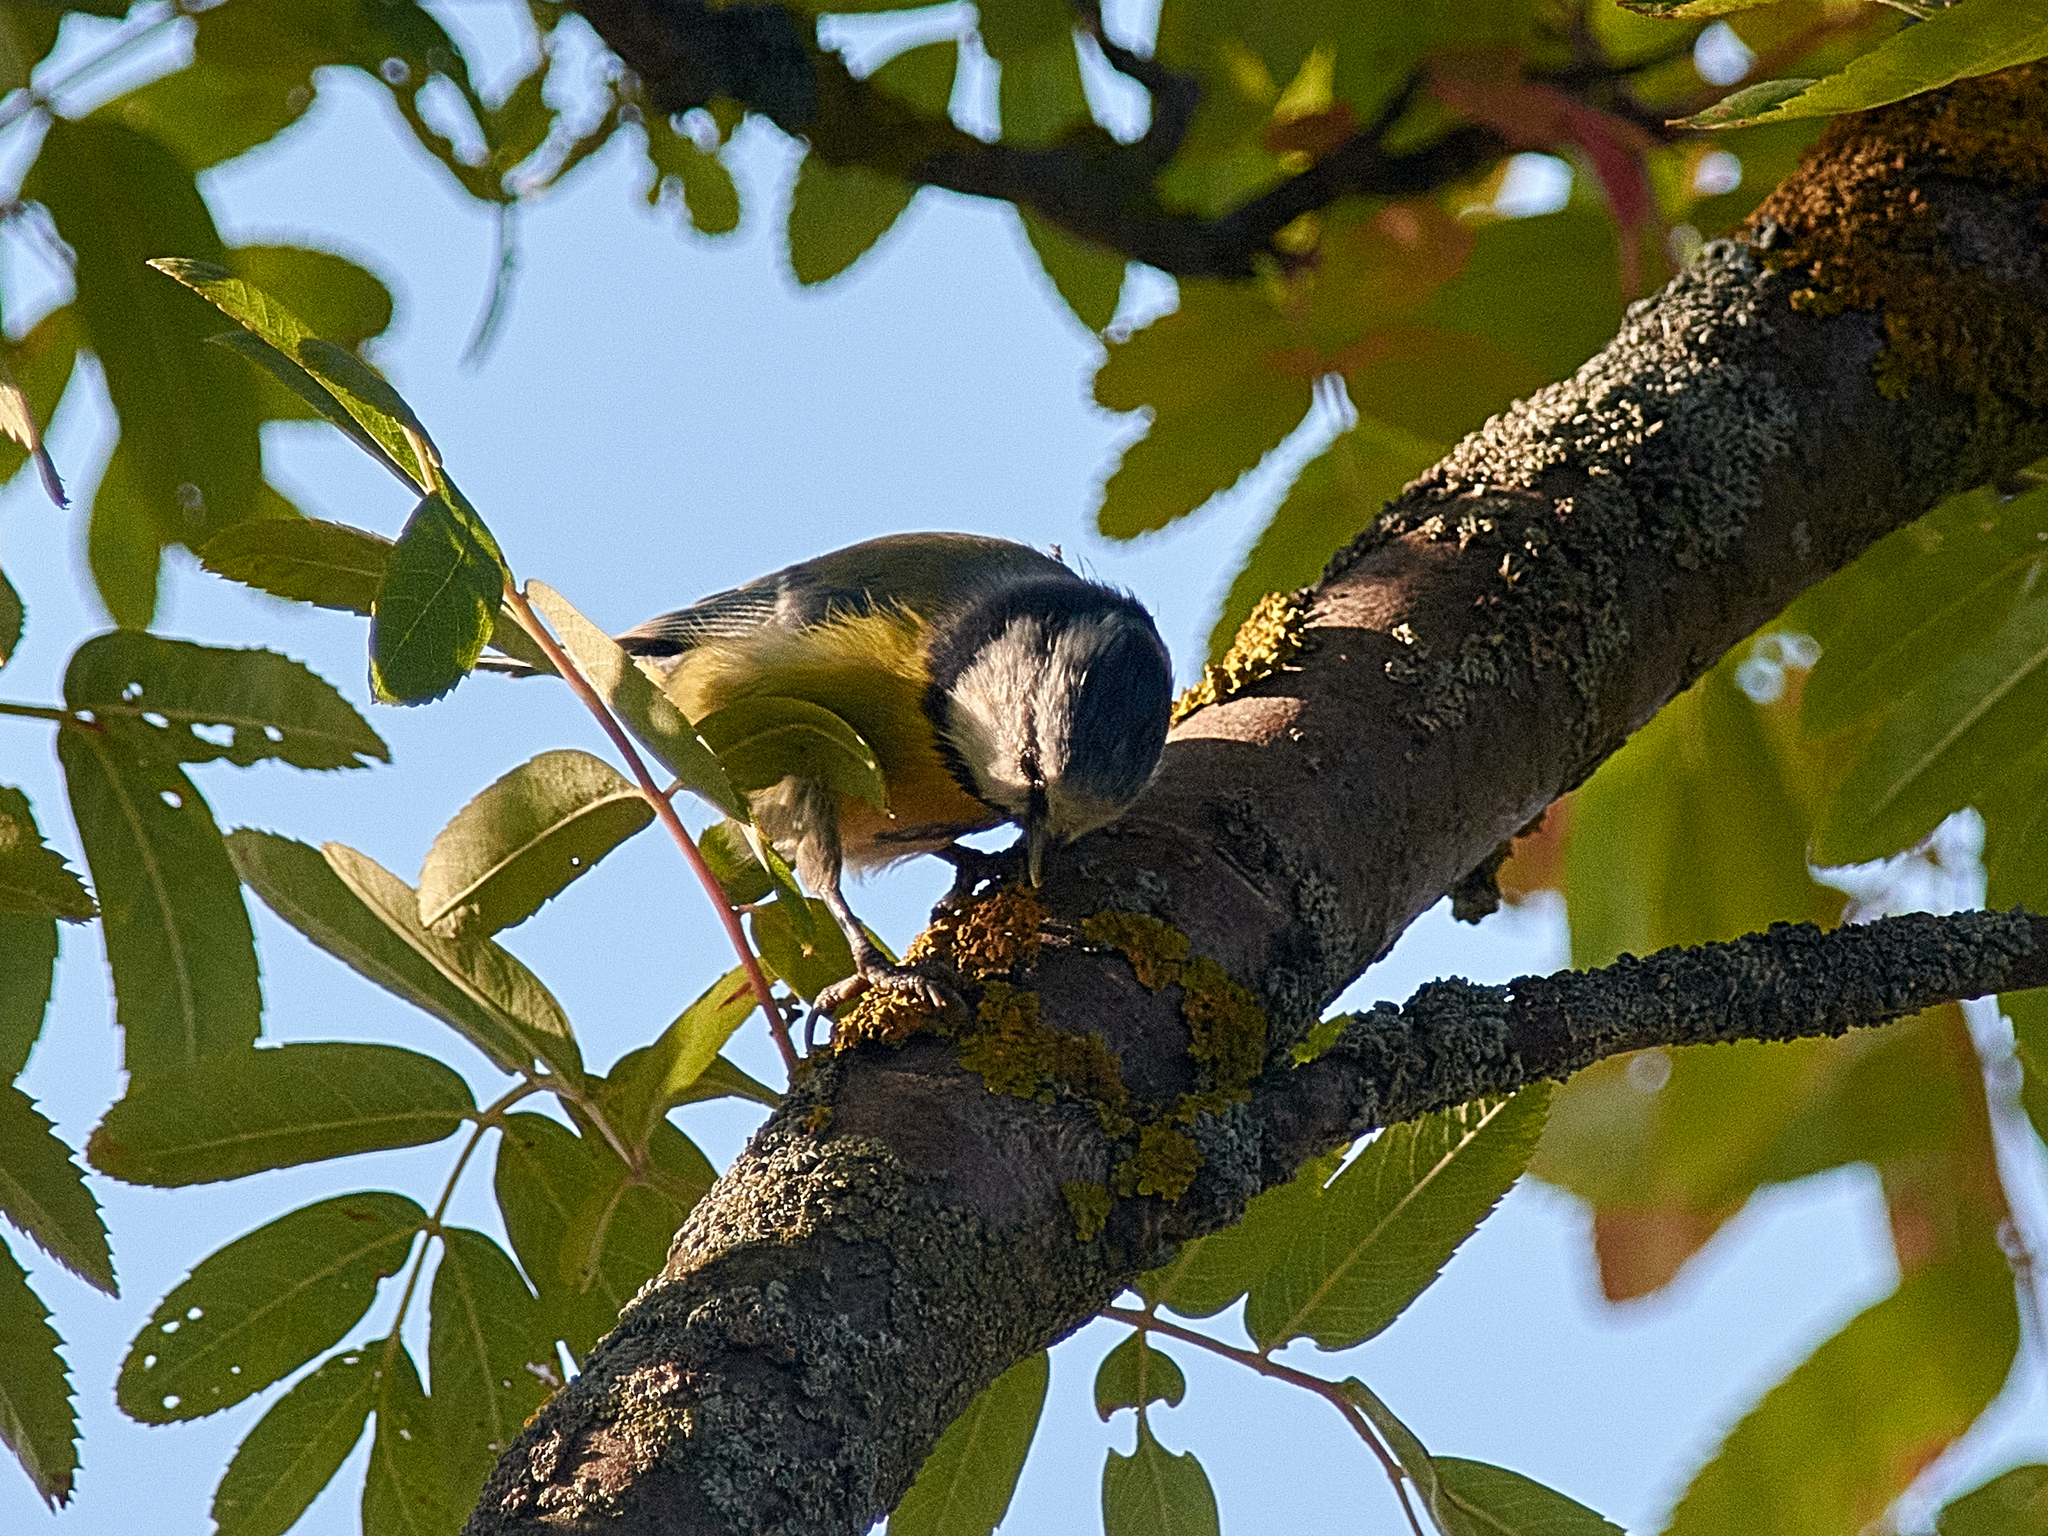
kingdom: Animalia
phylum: Chordata
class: Aves
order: Passeriformes
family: Paridae
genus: Cyanistes
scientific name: Cyanistes caeruleus
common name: Eurasian blue tit
